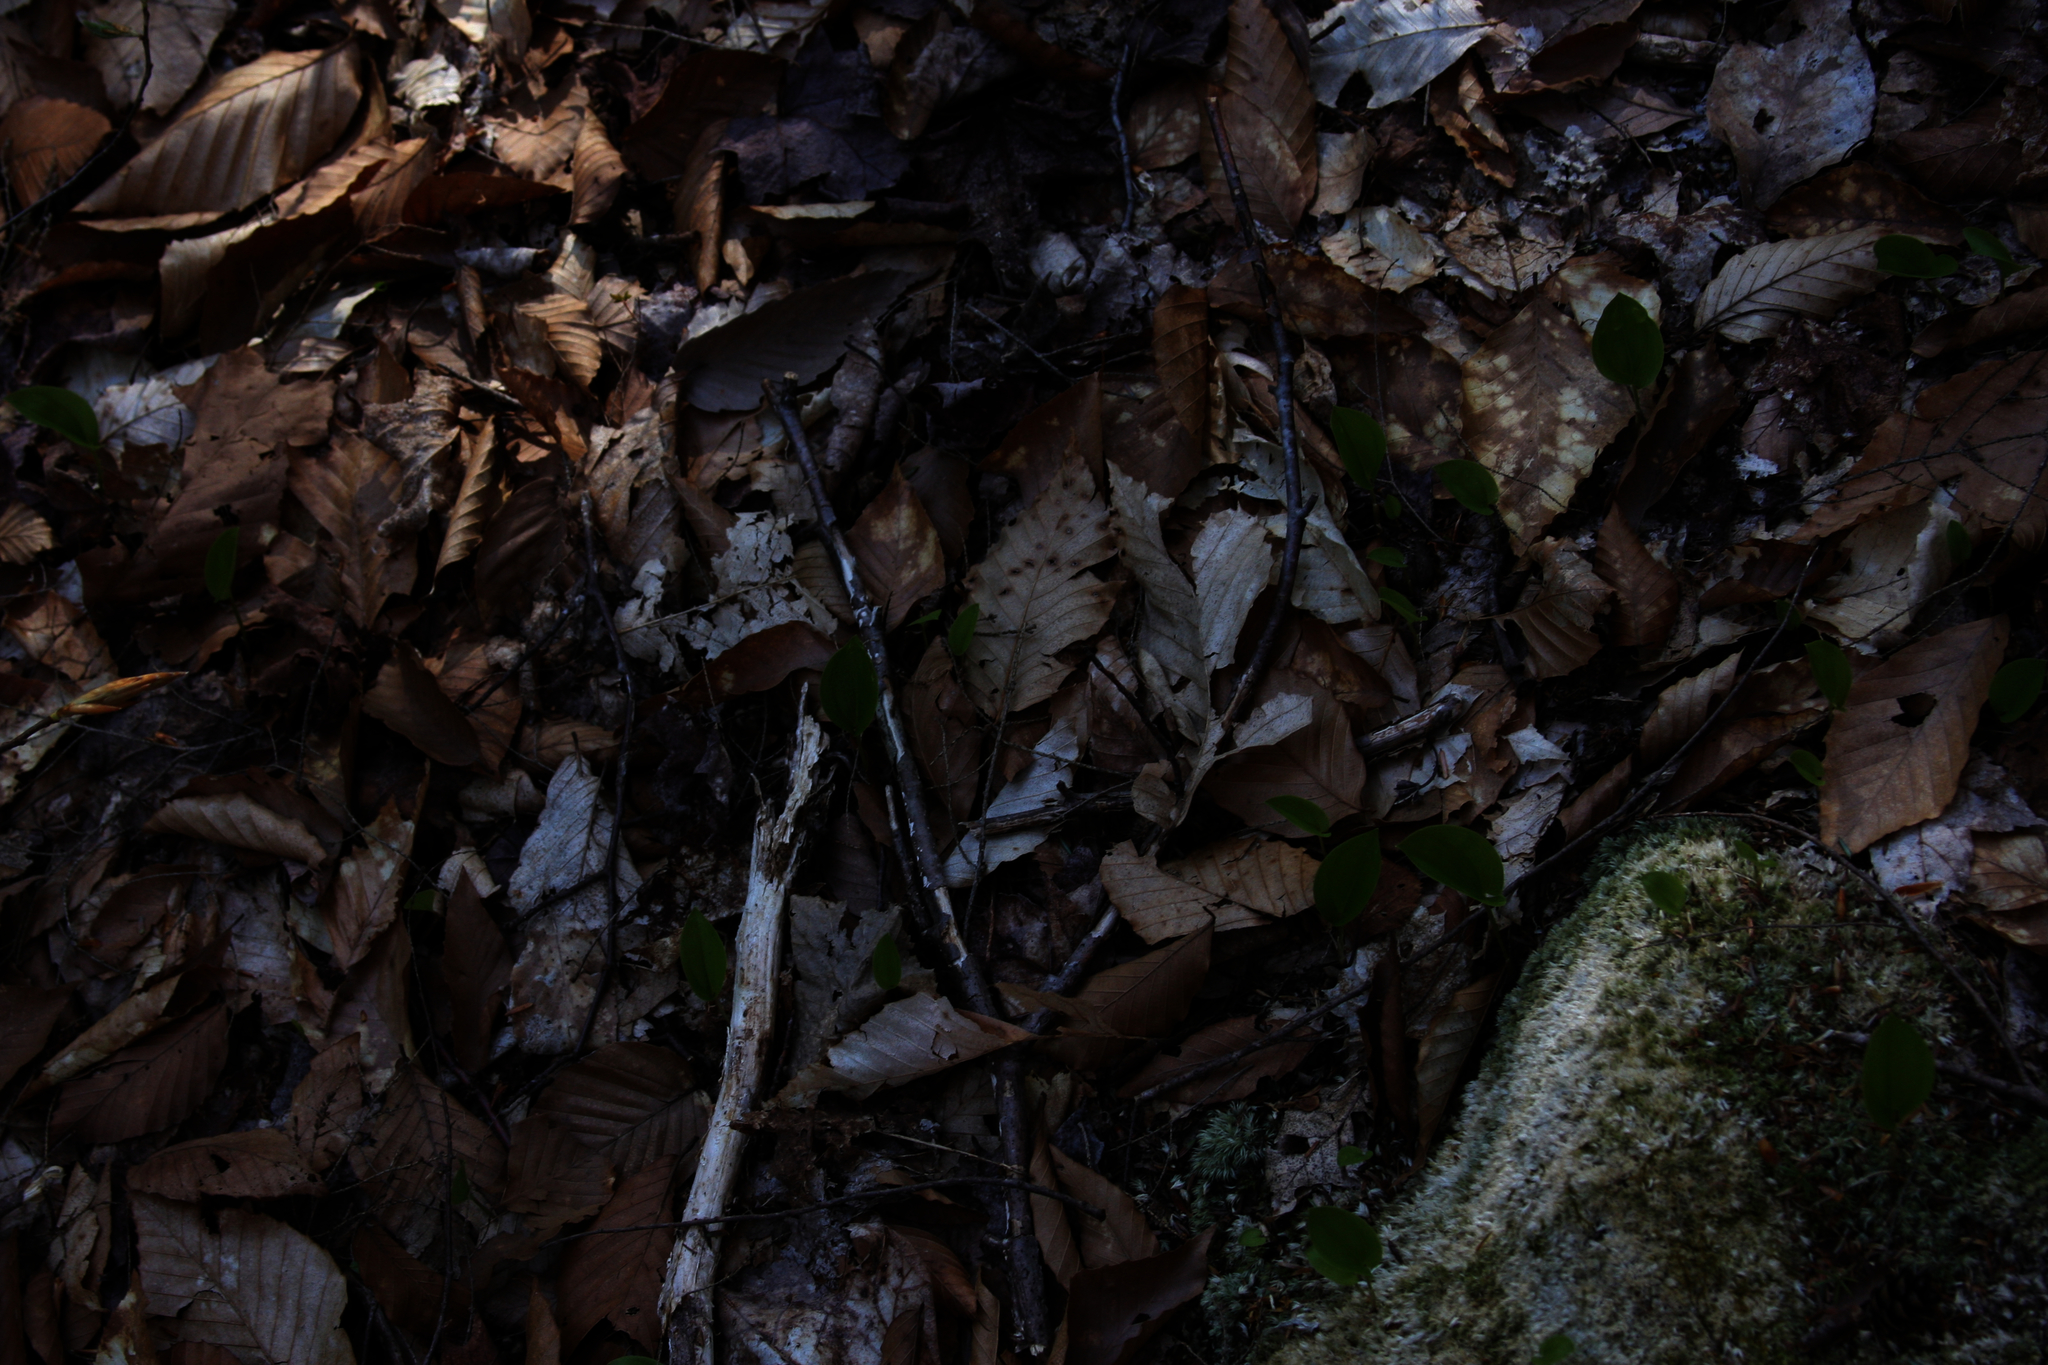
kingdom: Plantae
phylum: Tracheophyta
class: Liliopsida
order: Asparagales
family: Asparagaceae
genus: Maianthemum
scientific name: Maianthemum canadense
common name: False lily-of-the-valley
